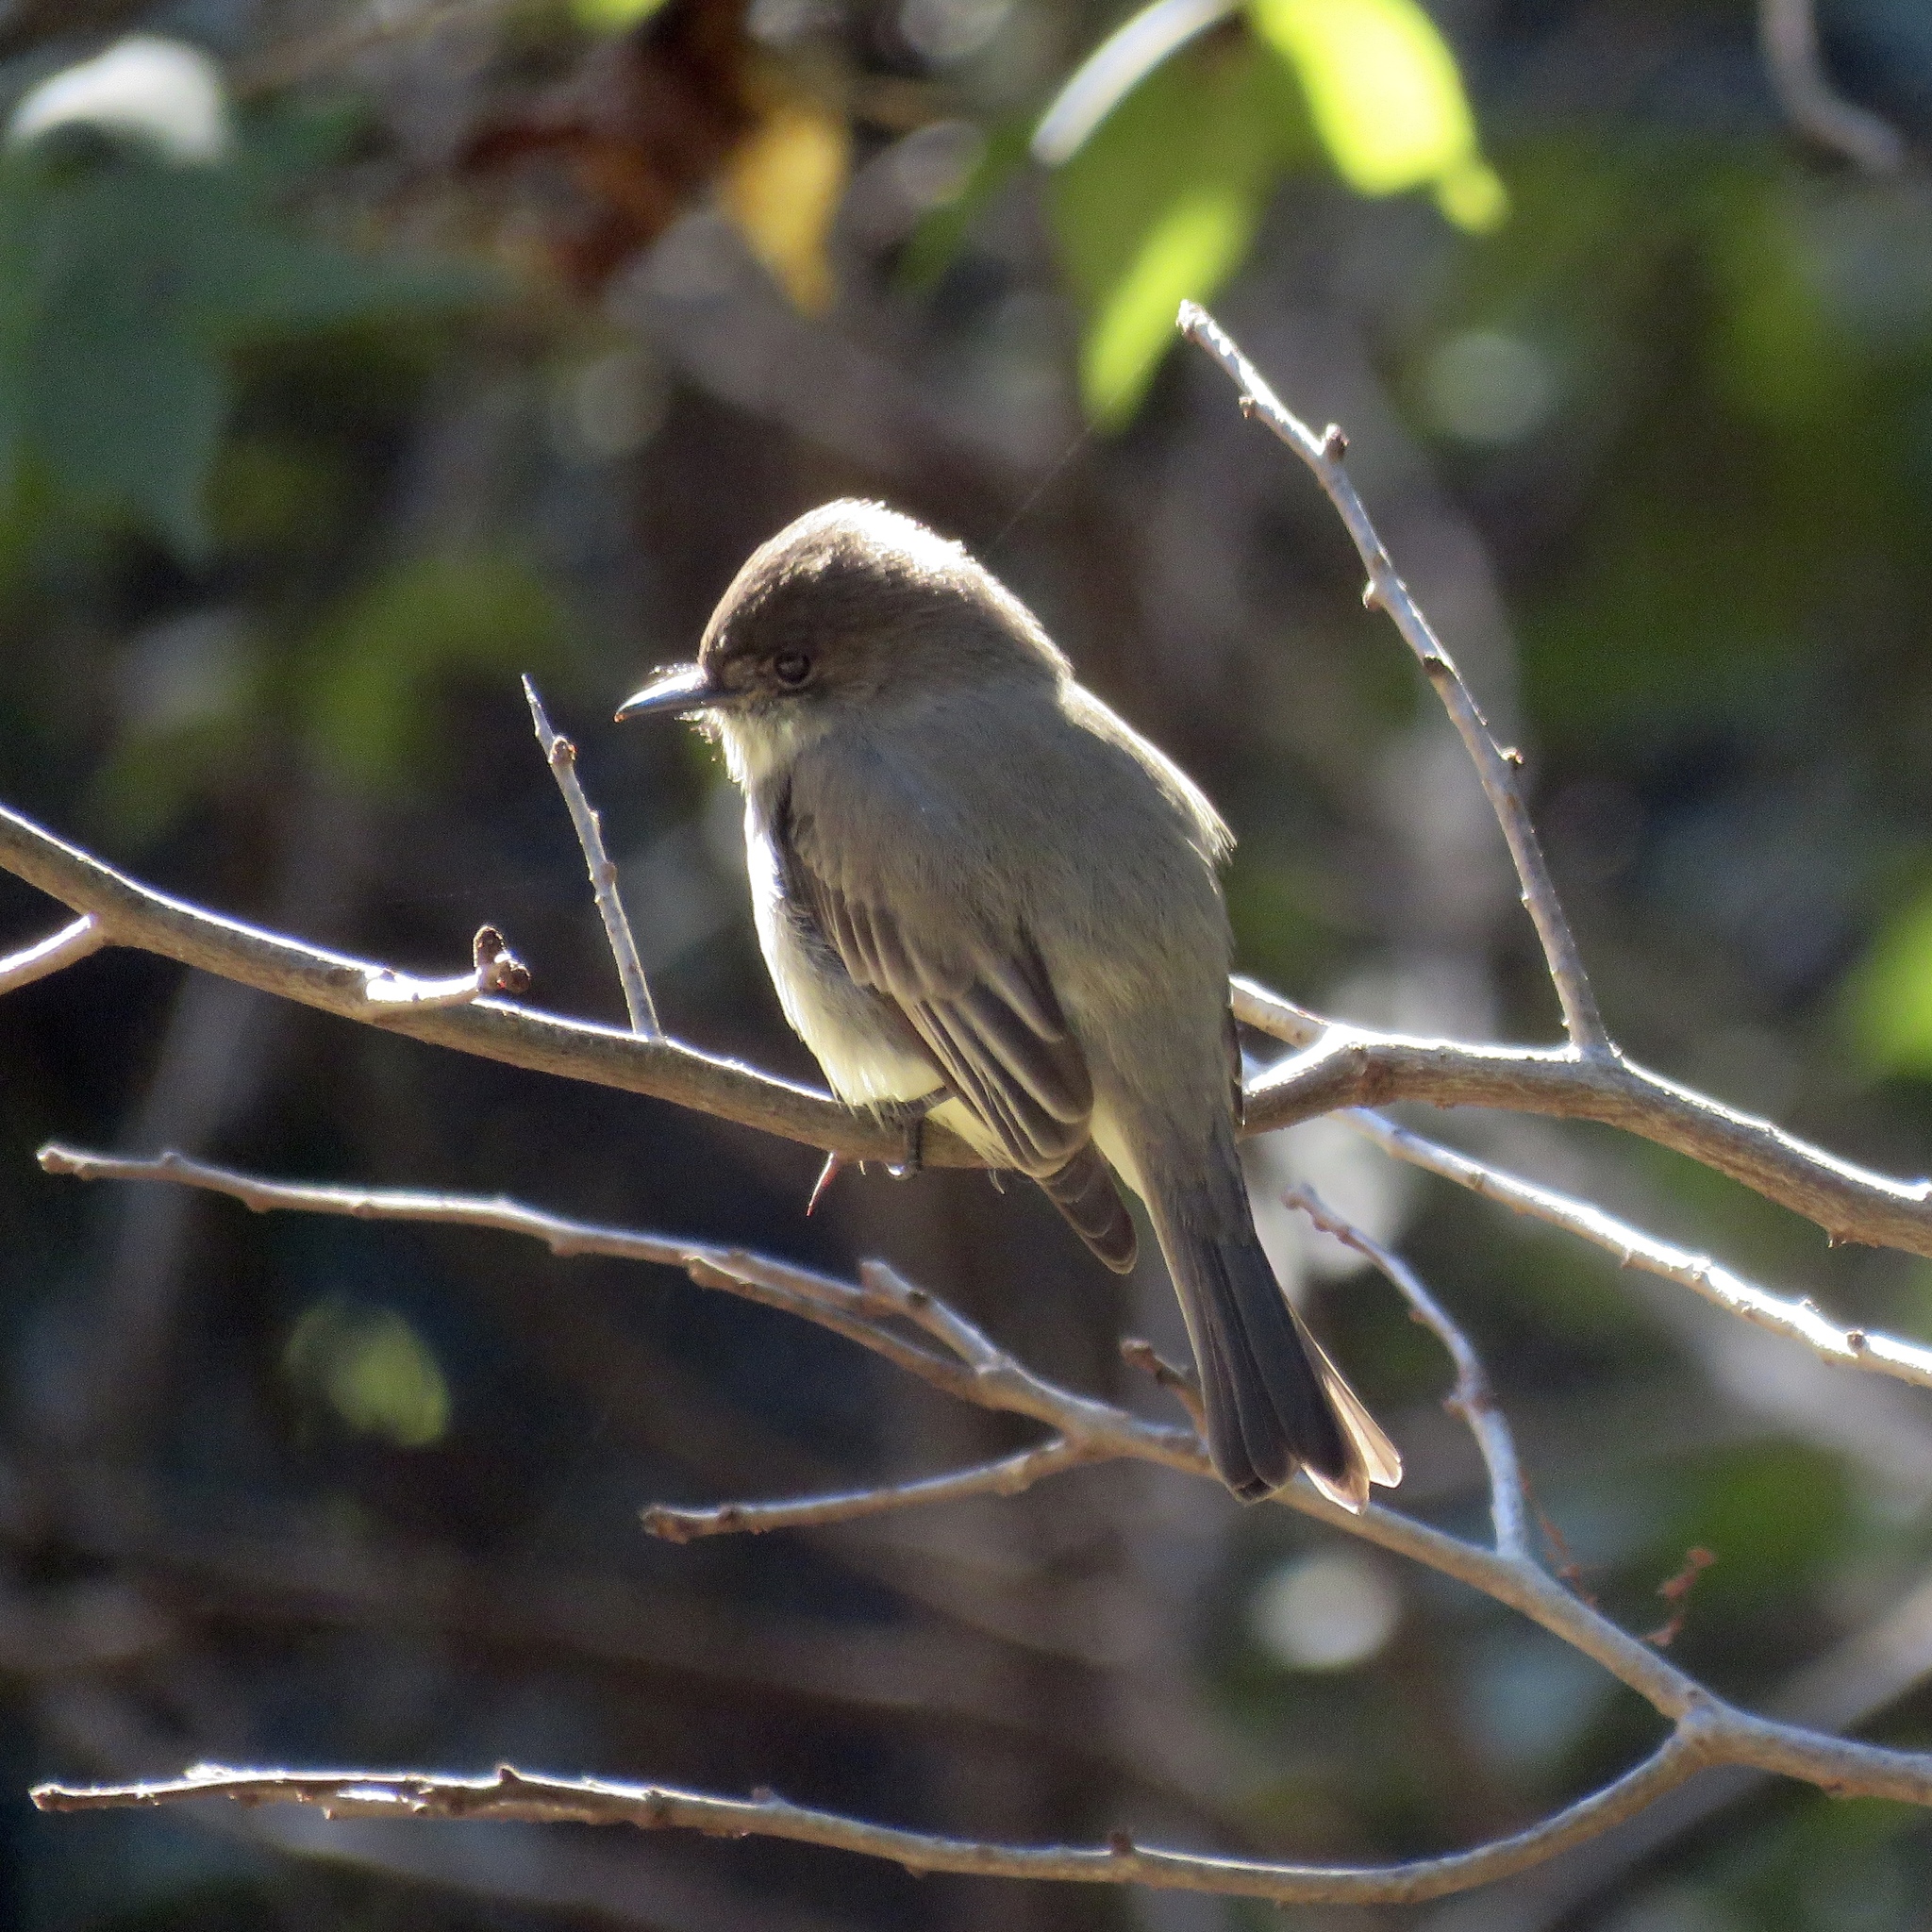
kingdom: Animalia
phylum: Chordata
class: Aves
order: Passeriformes
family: Tyrannidae
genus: Sayornis
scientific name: Sayornis phoebe
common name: Eastern phoebe
